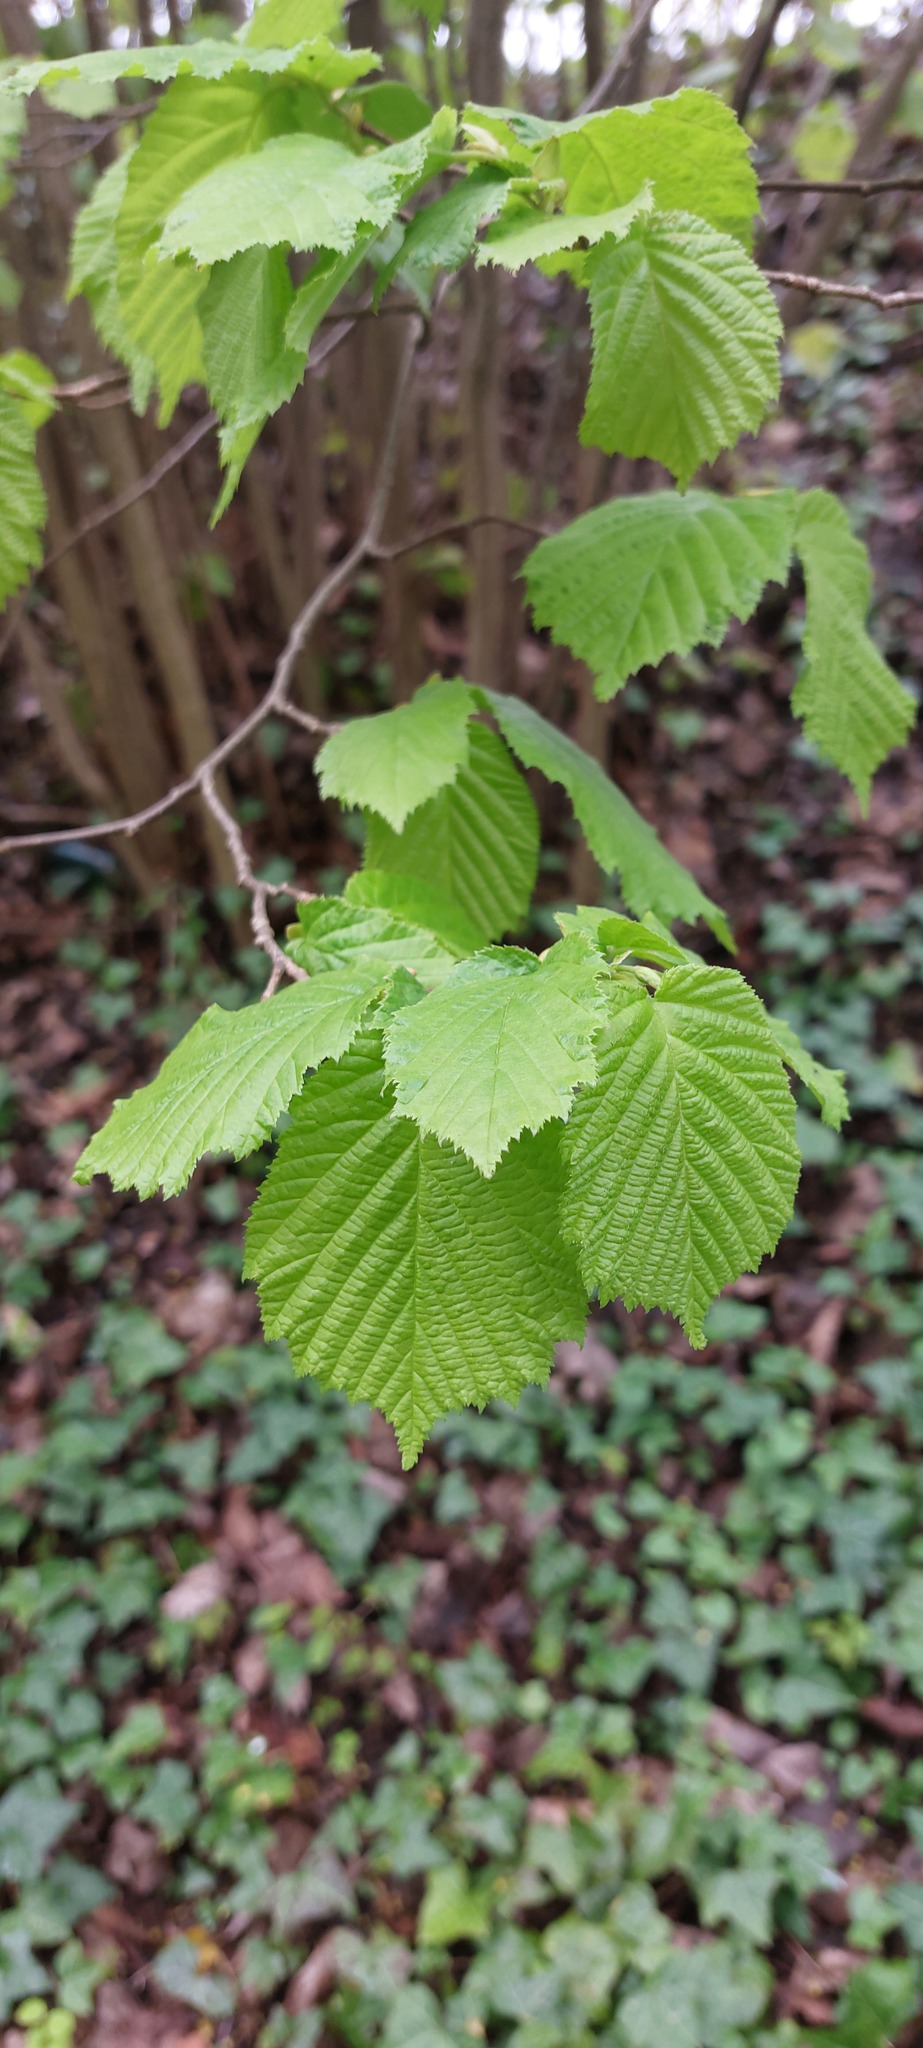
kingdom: Plantae
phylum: Tracheophyta
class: Magnoliopsida
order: Fagales
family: Betulaceae
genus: Corylus
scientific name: Corylus avellana
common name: European hazel
